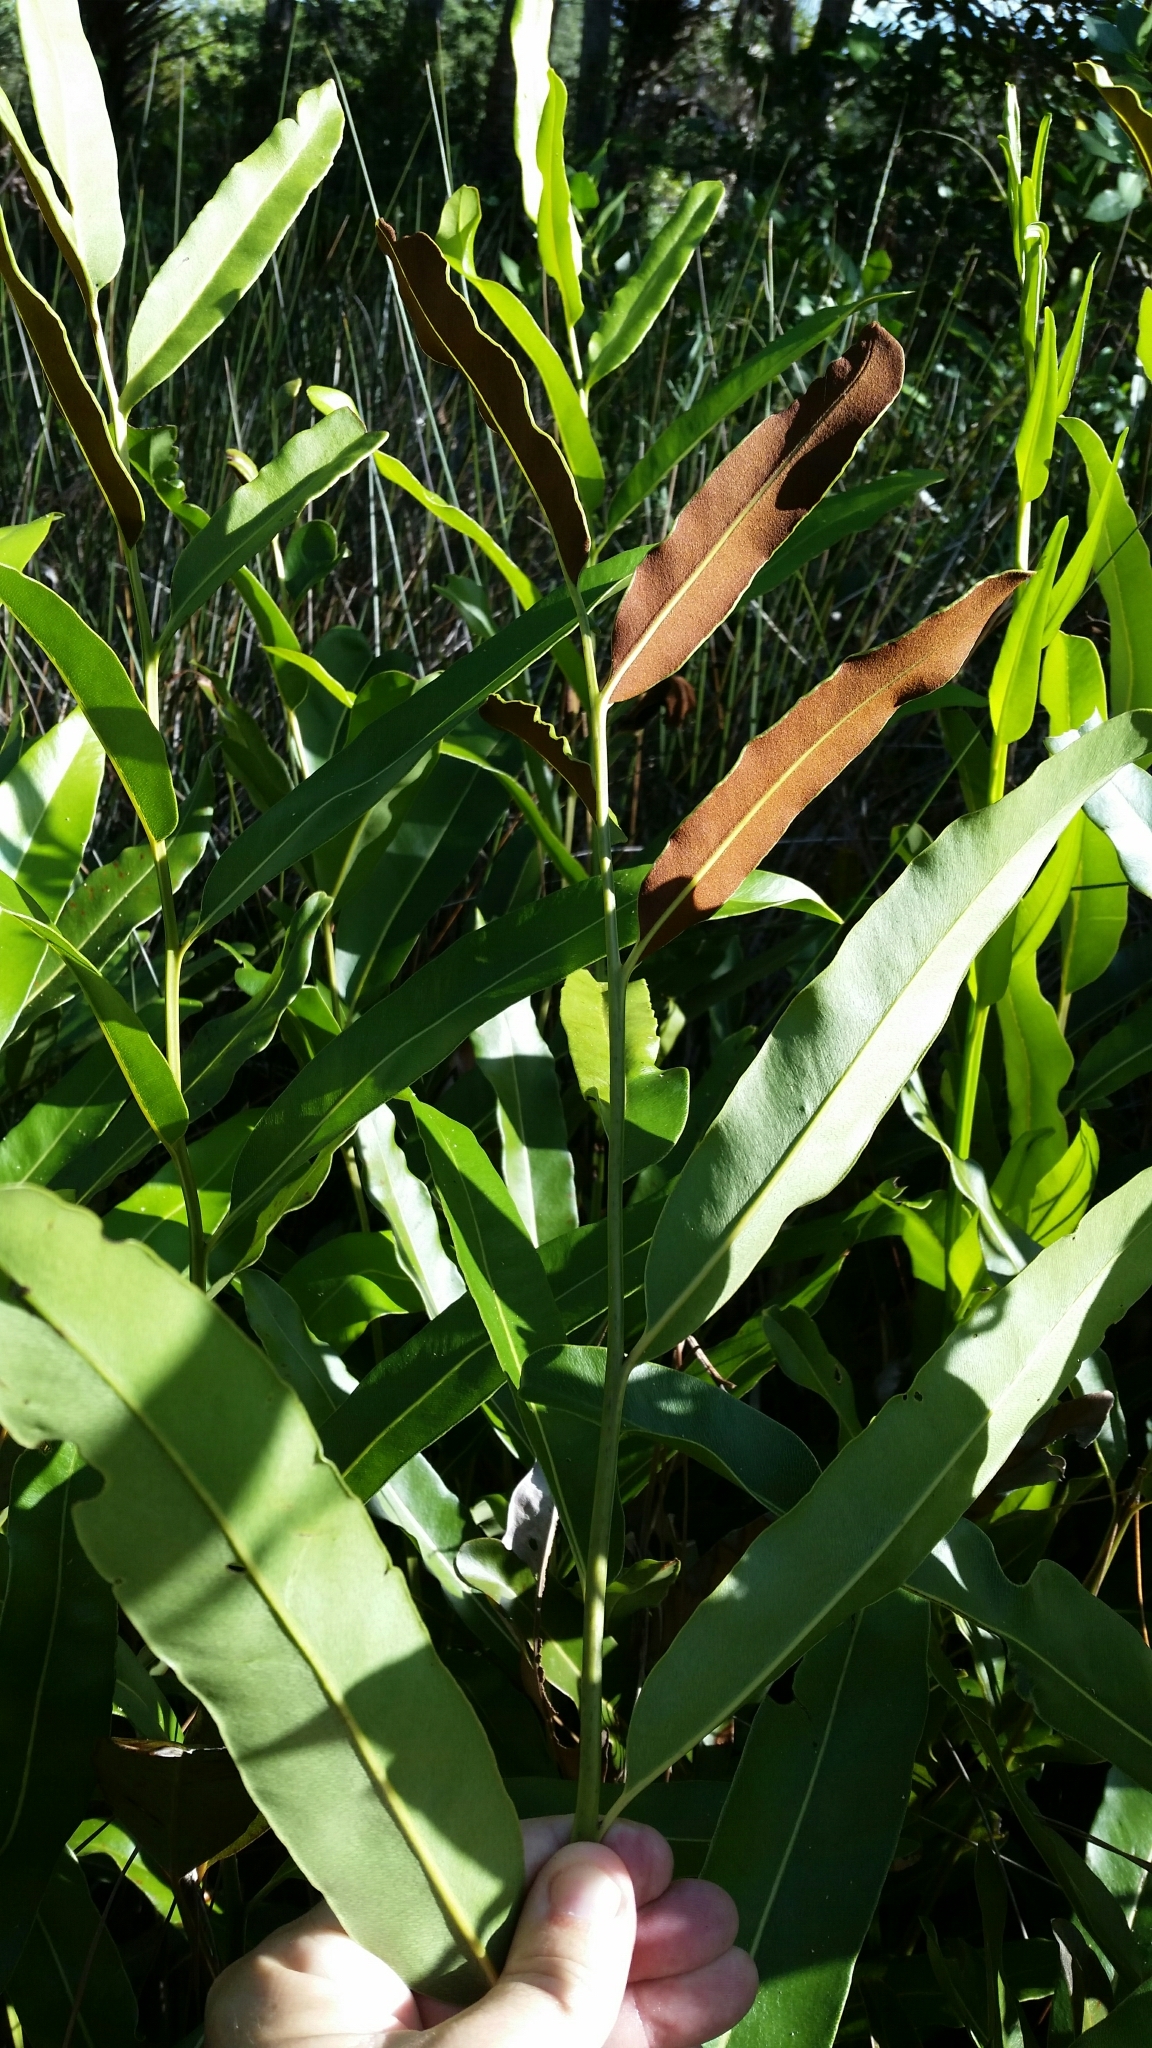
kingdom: Plantae
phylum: Tracheophyta
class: Polypodiopsida
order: Polypodiales
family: Pteridaceae
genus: Acrostichum
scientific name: Acrostichum aureum
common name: Leather fern
